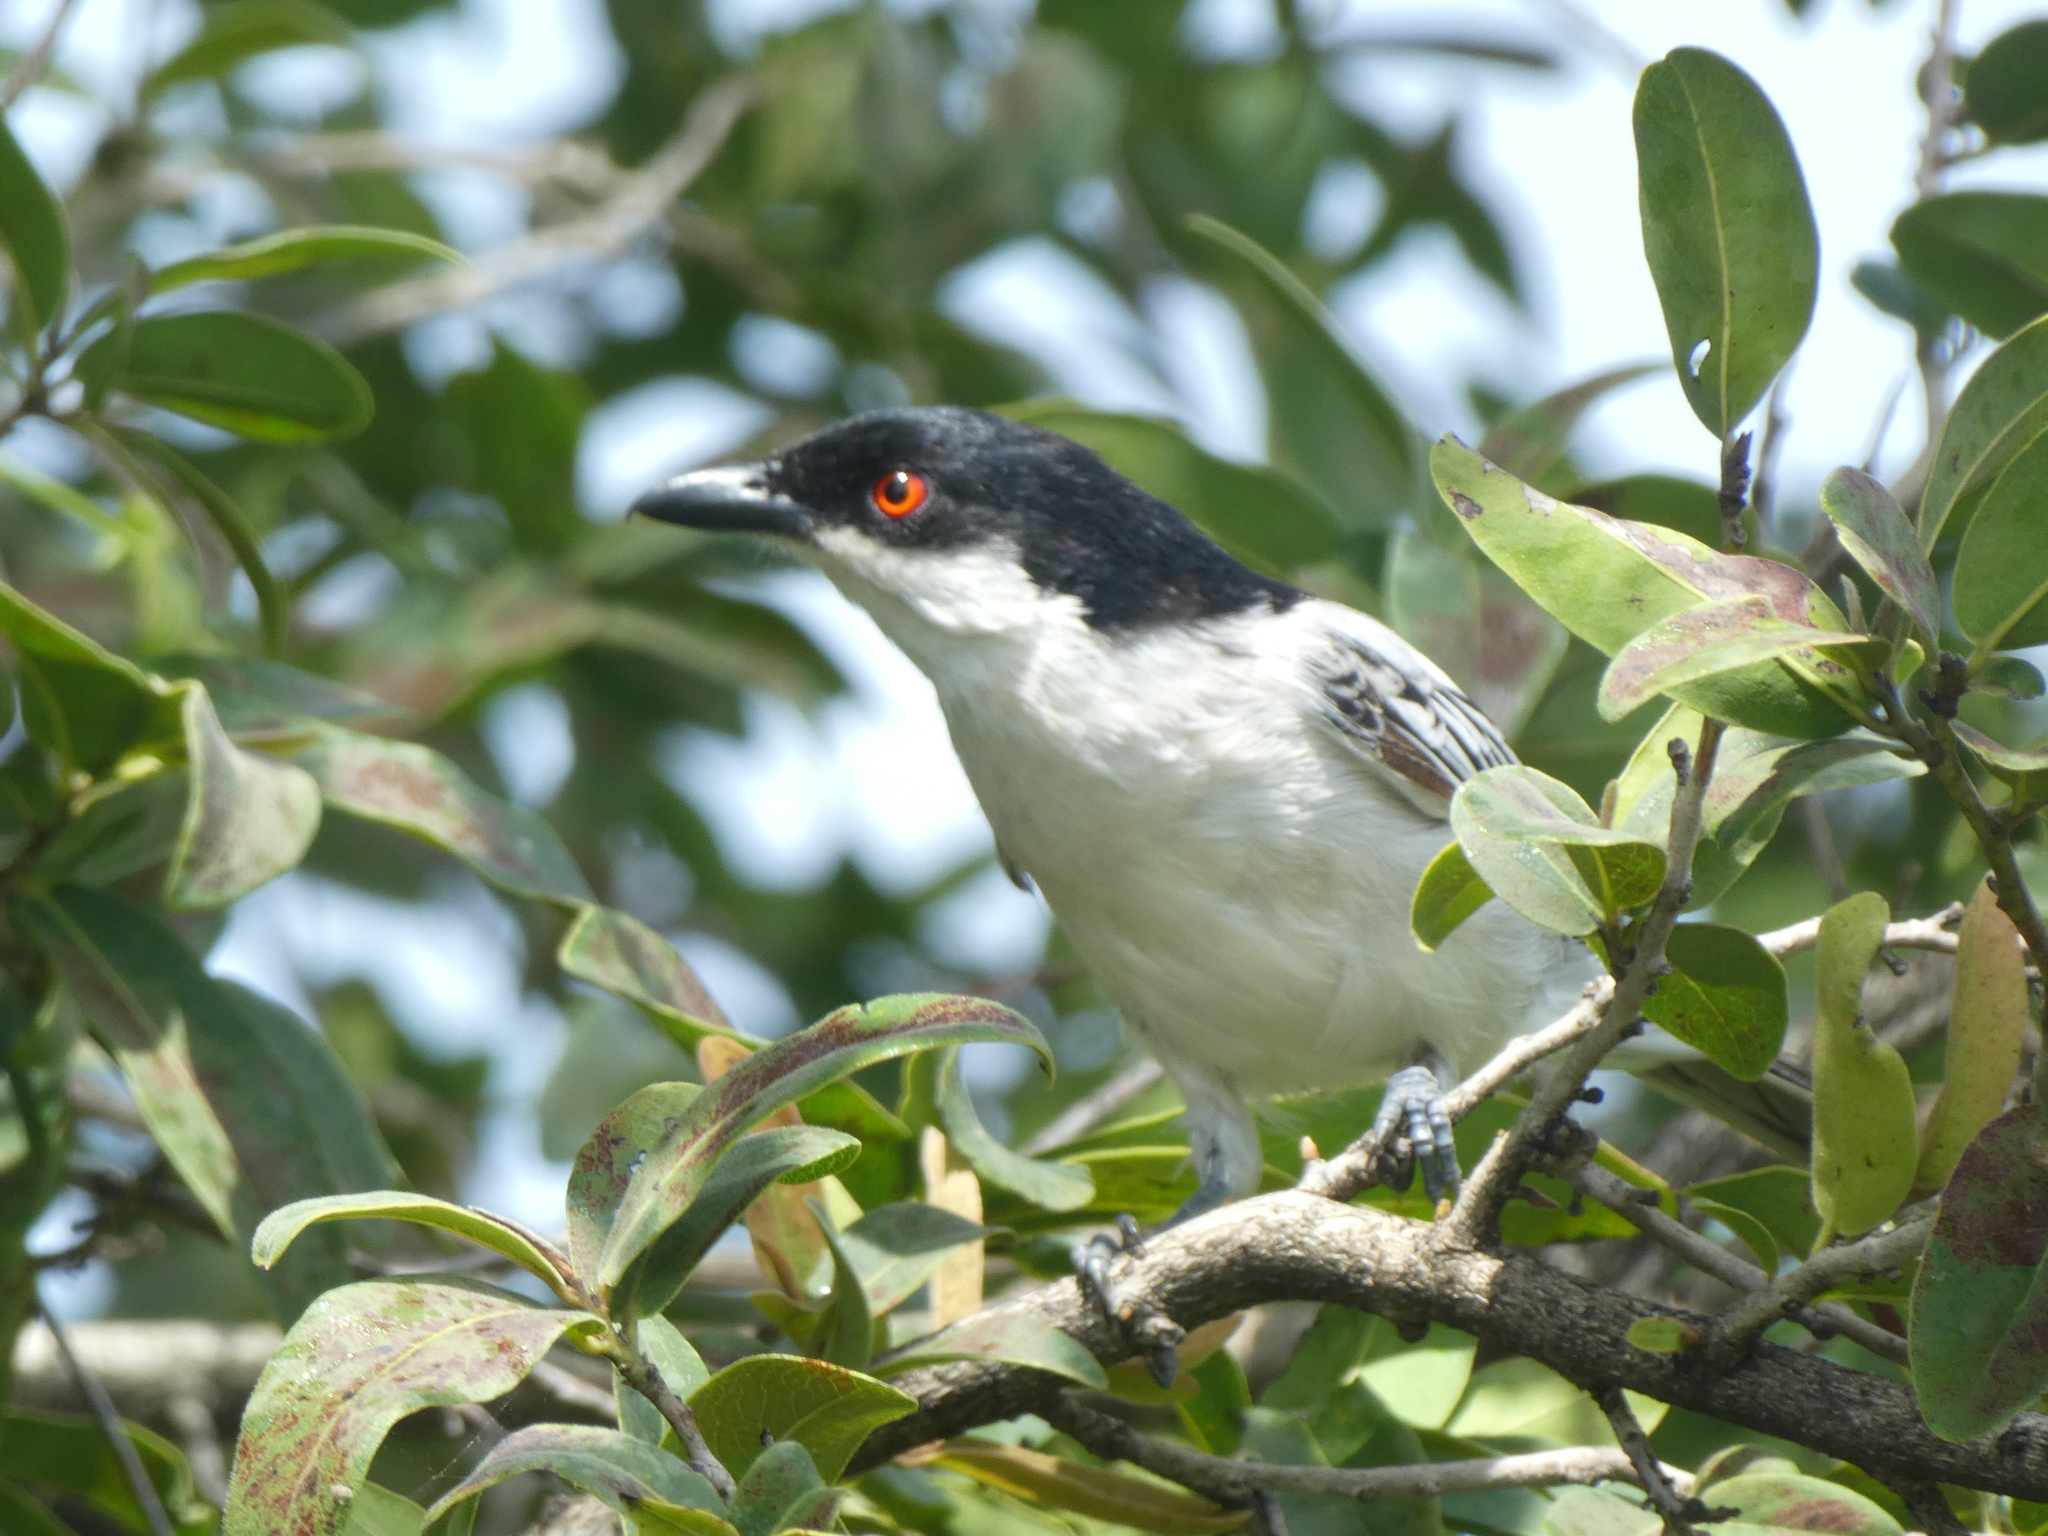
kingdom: Animalia
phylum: Chordata
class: Aves
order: Passeriformes
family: Malaconotidae
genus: Dryoscopus
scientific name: Dryoscopus cubla
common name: Black-backed puffback
